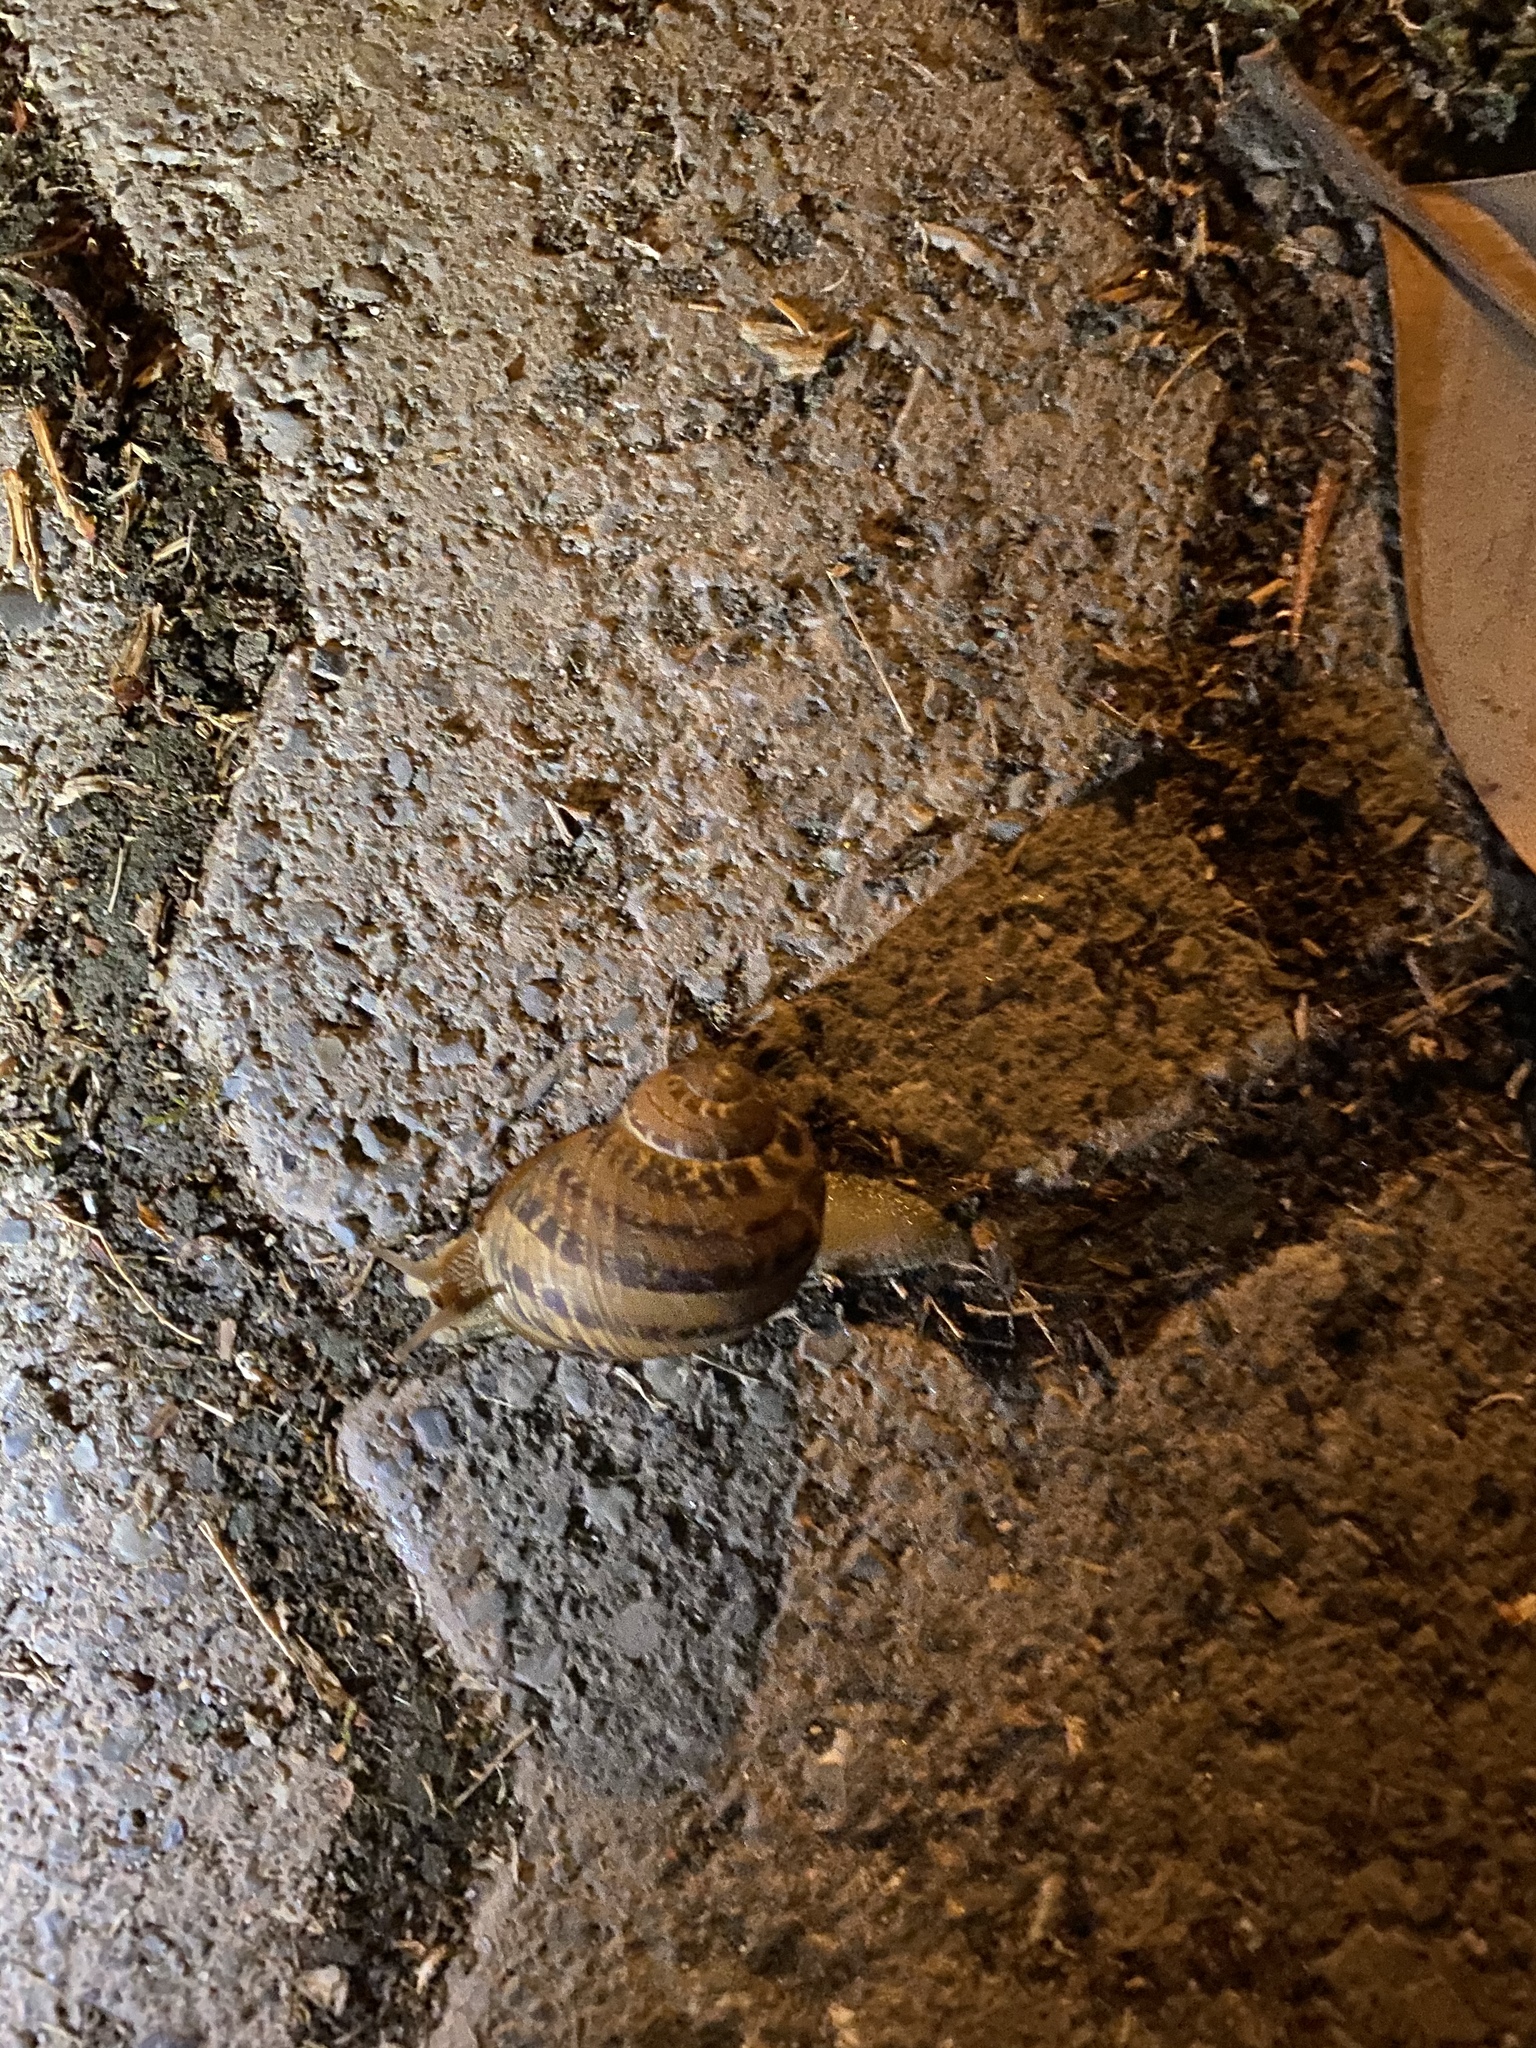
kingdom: Animalia
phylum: Mollusca
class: Gastropoda
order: Stylommatophora
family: Helicidae
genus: Cornu
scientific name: Cornu aspersum
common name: Brown garden snail
